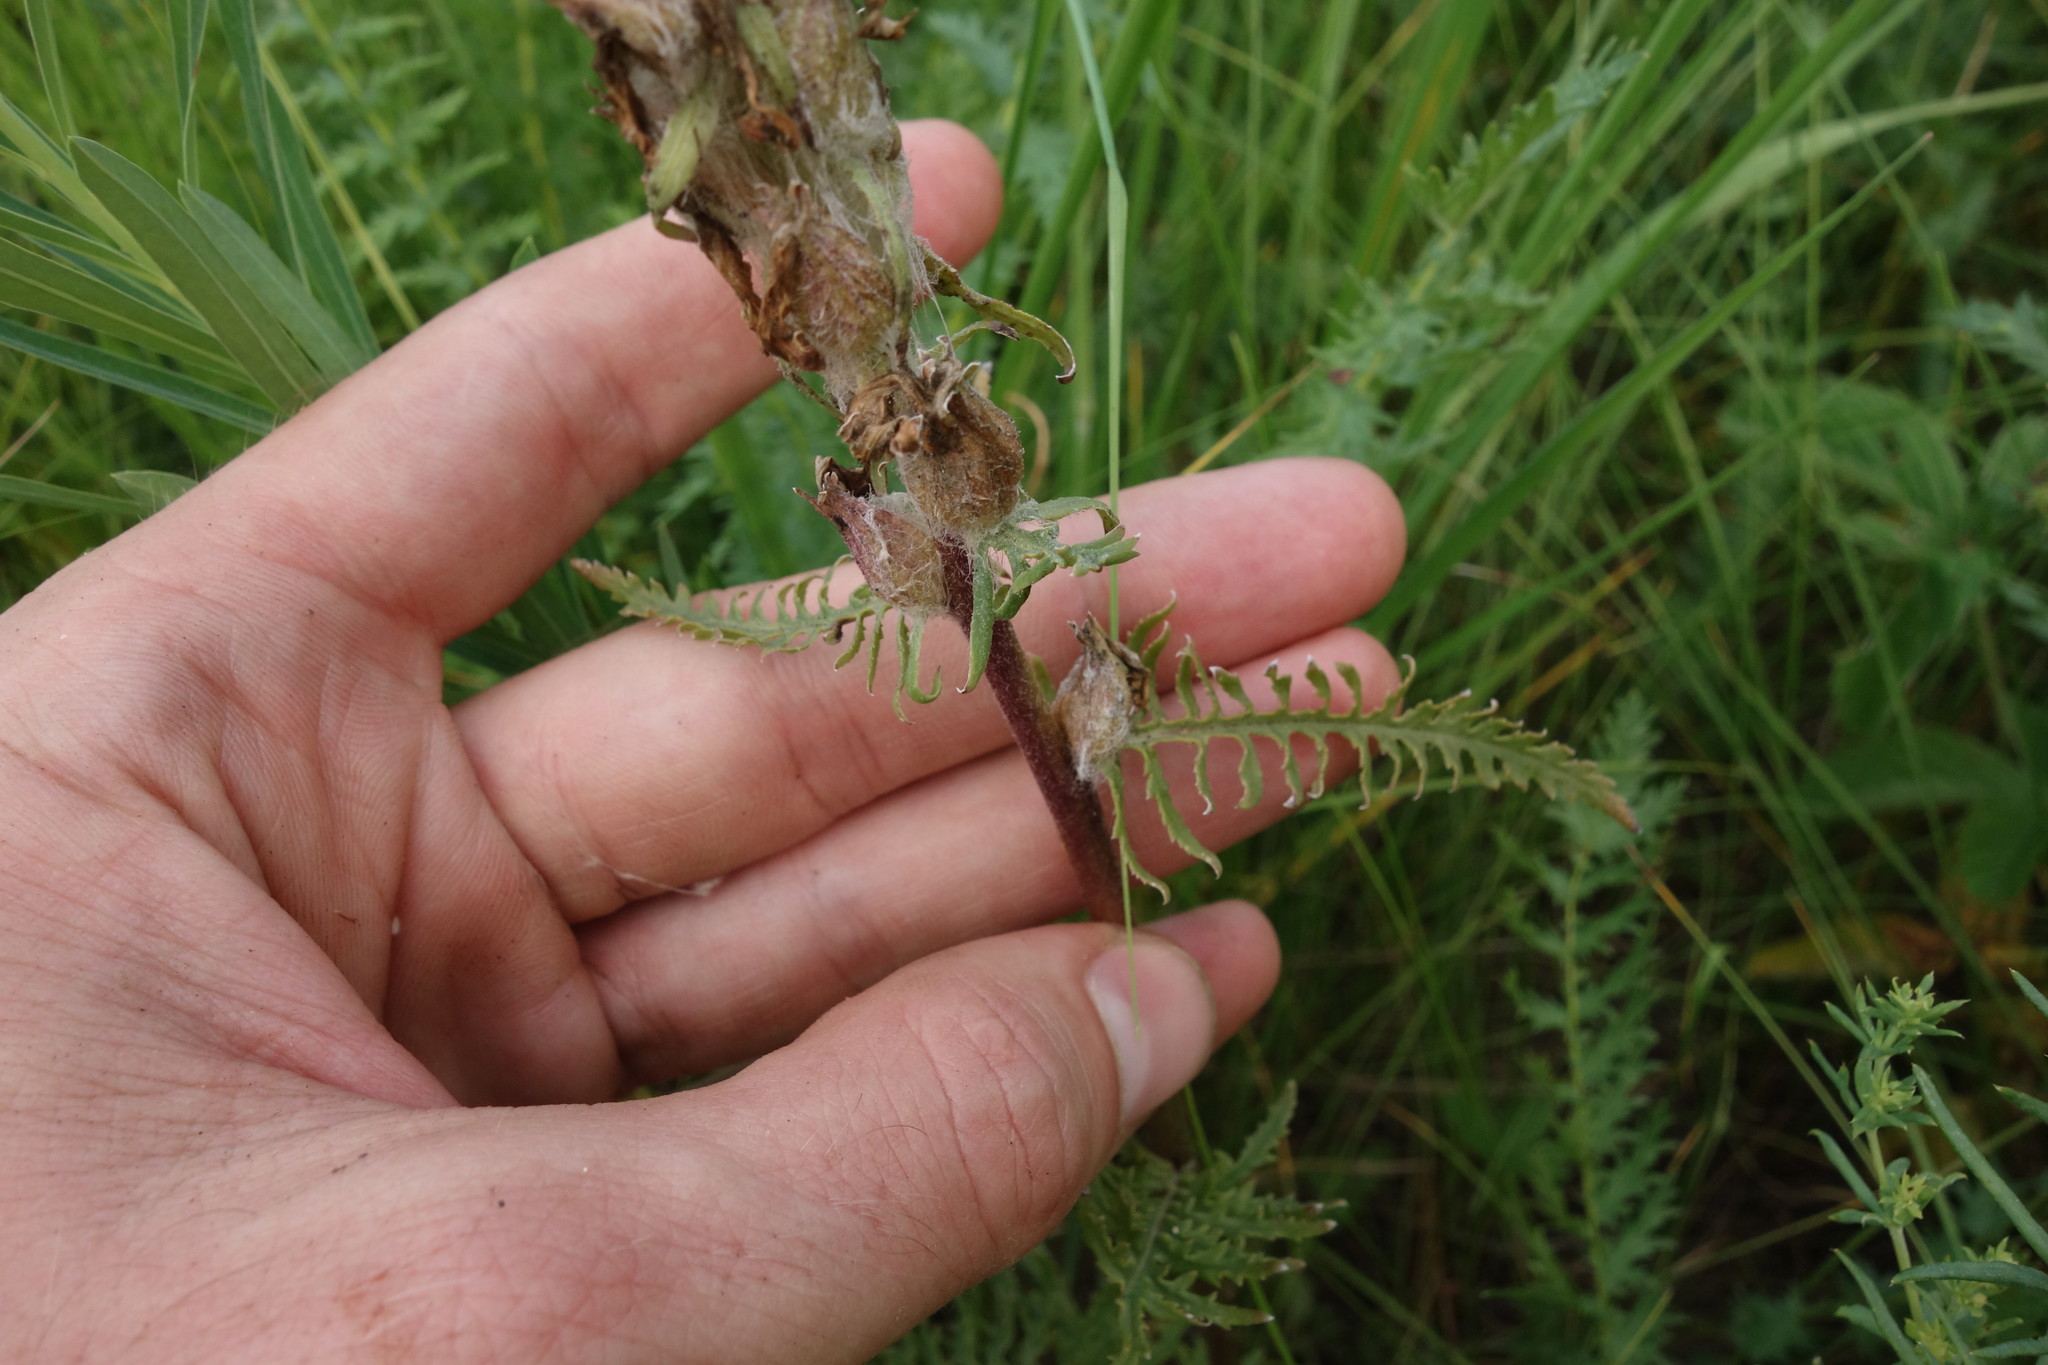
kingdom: Plantae
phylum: Tracheophyta
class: Magnoliopsida
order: Lamiales
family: Orobanchaceae
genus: Pedicularis
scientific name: Pedicularis dasystachys
